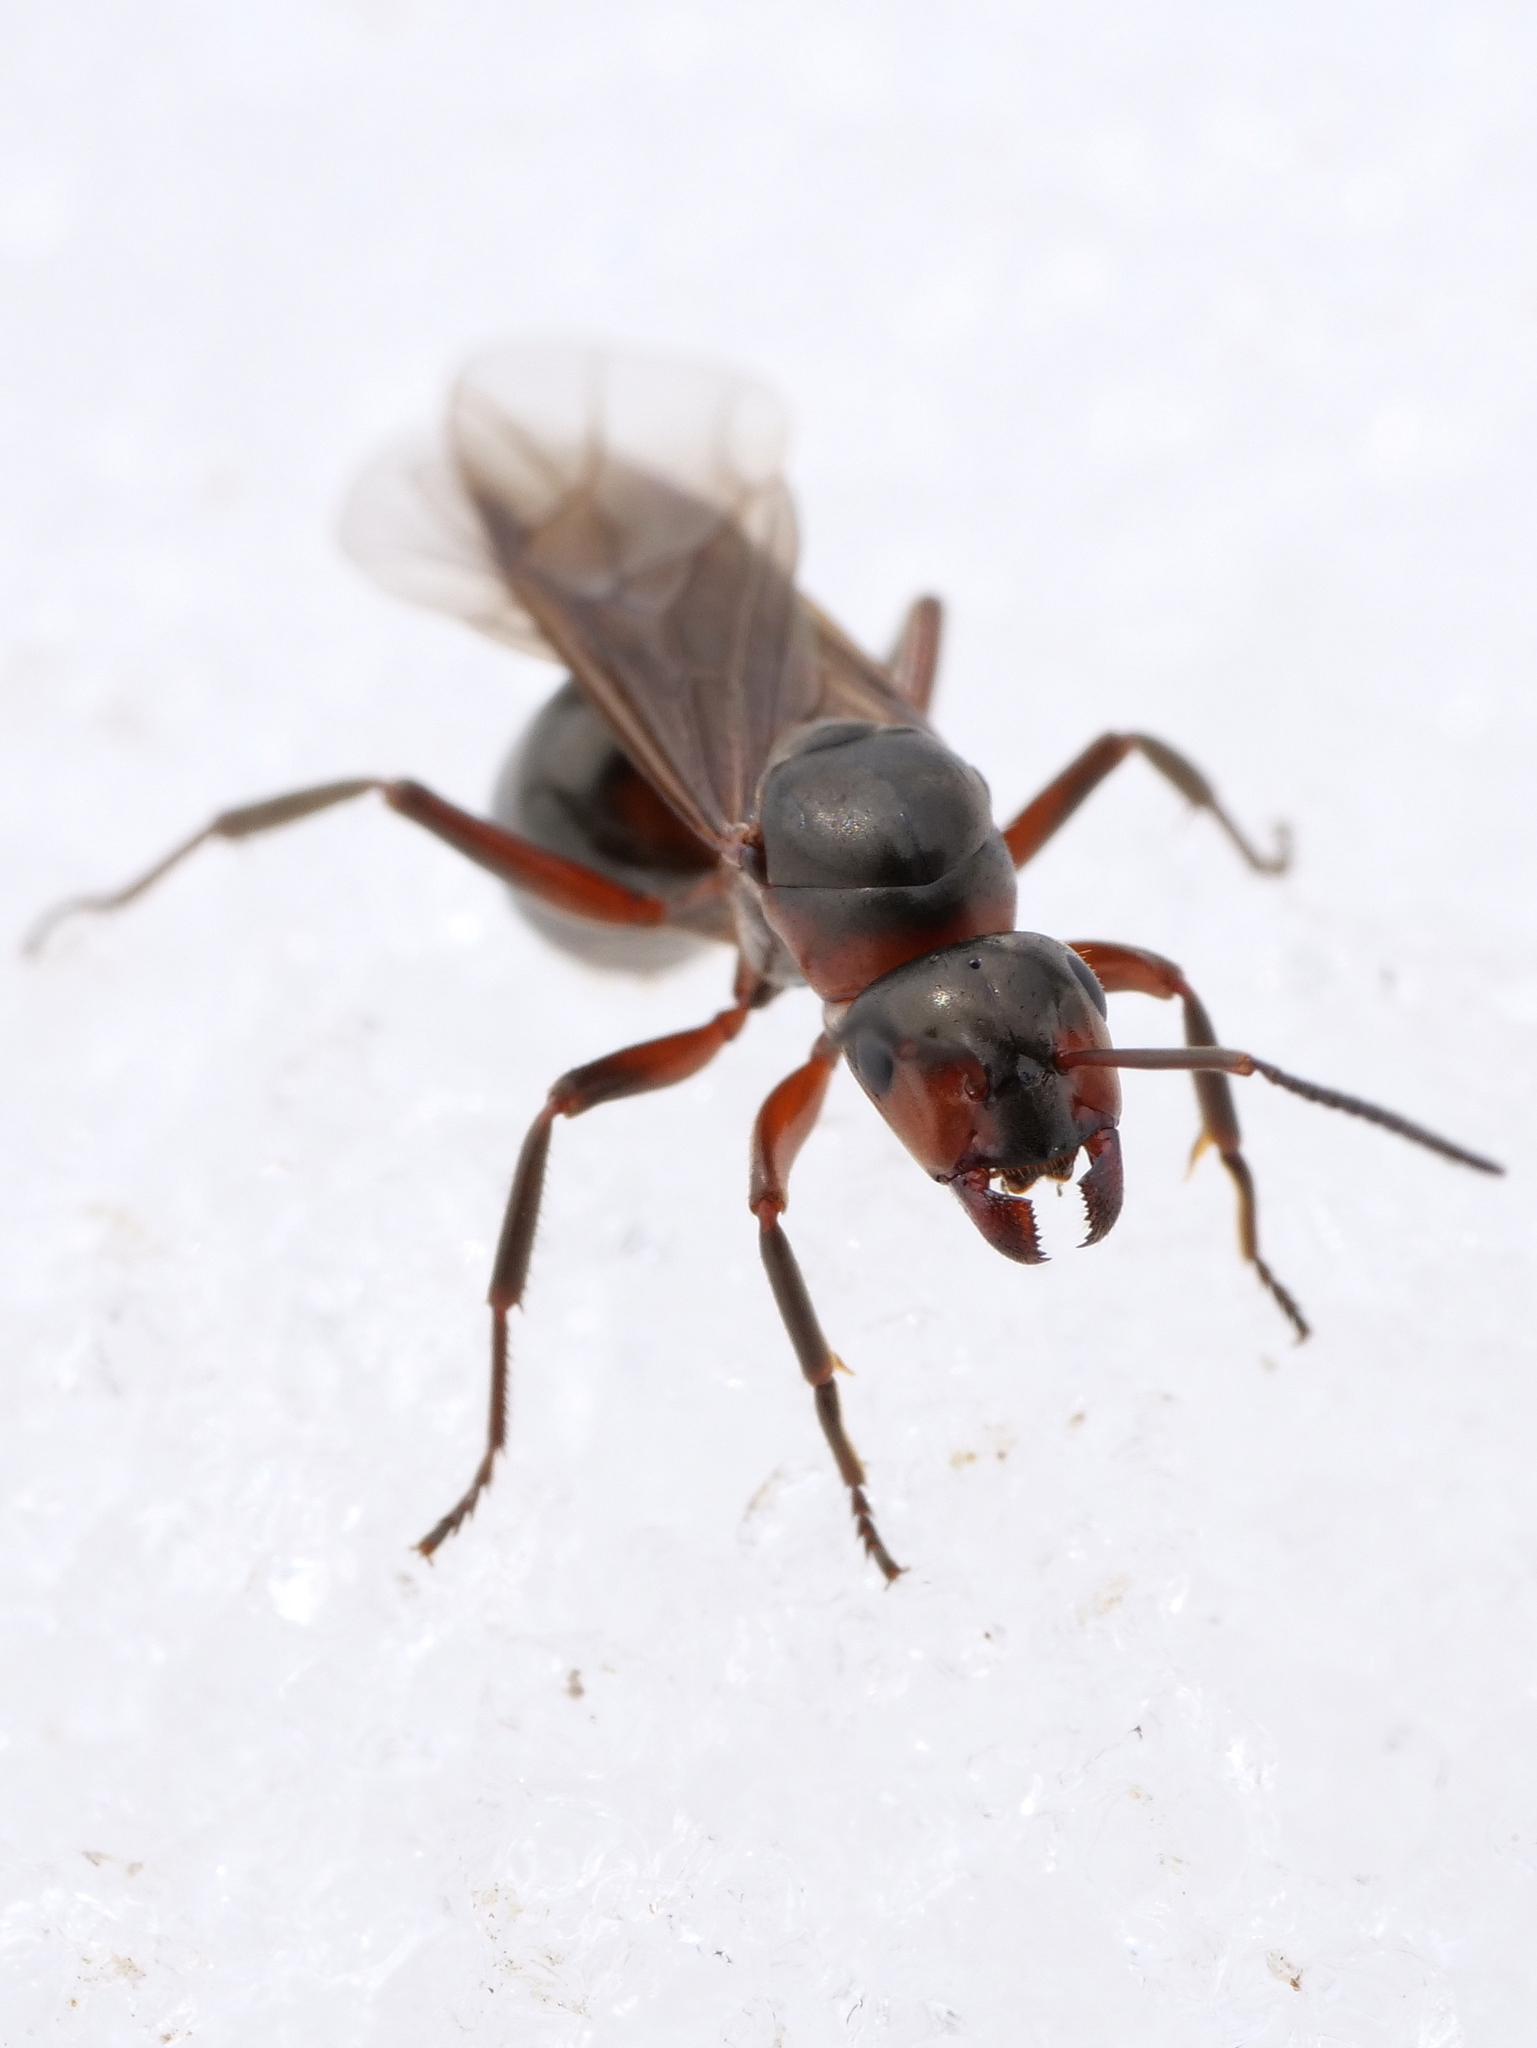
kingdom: Animalia
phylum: Arthropoda
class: Insecta
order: Hymenoptera
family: Formicidae
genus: Formica
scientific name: Formica
